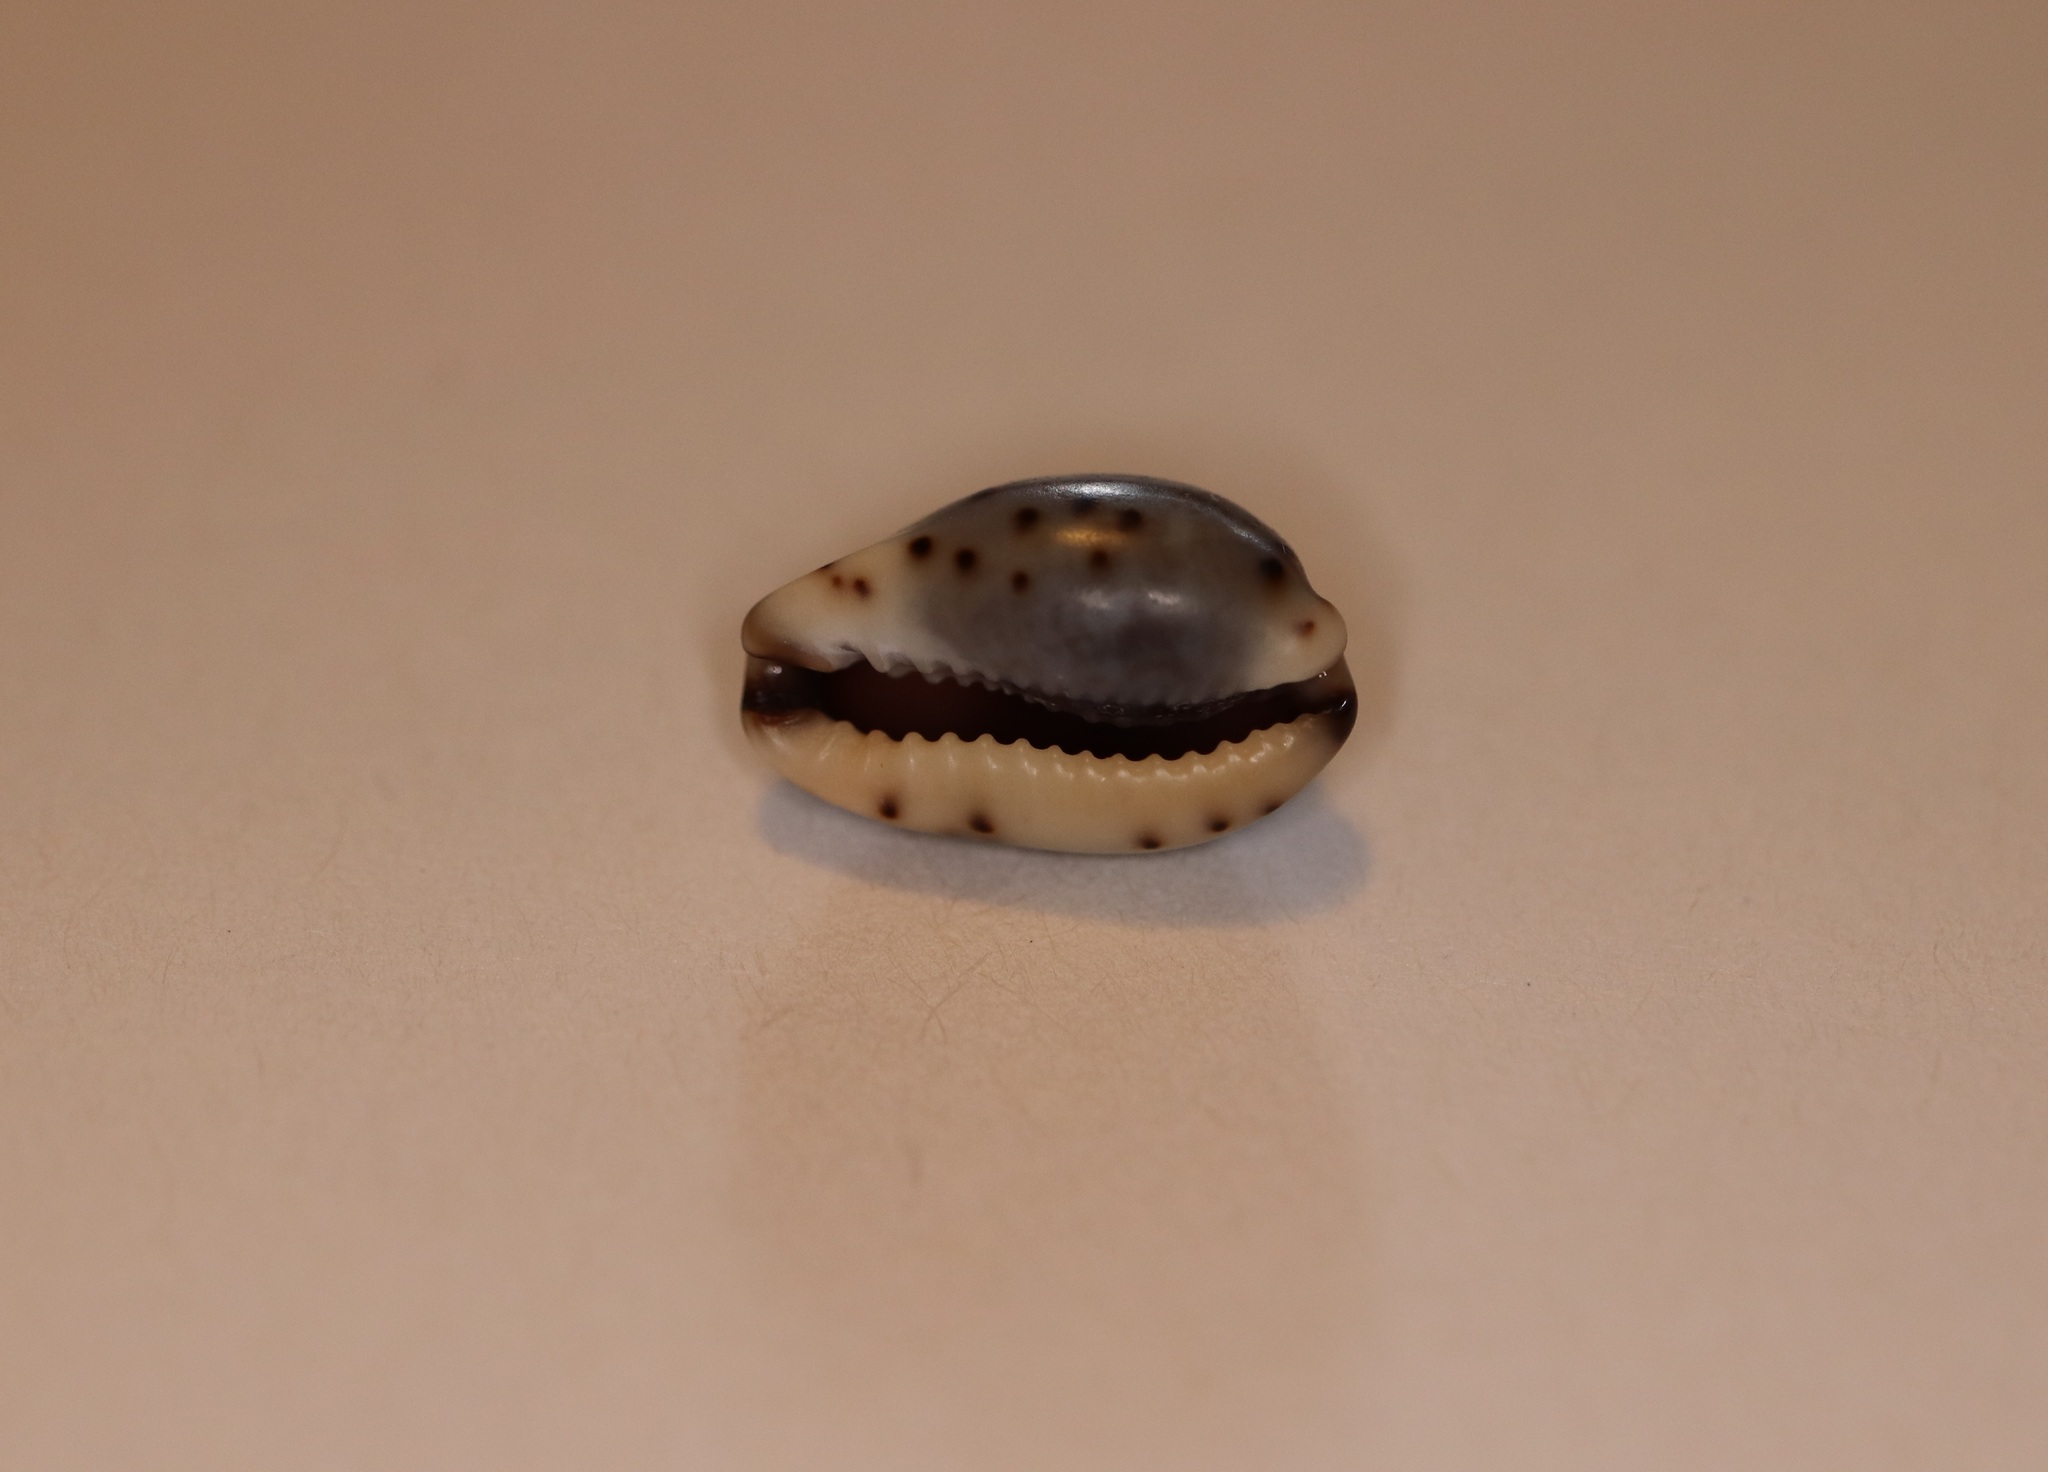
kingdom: Animalia
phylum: Mollusca
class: Gastropoda
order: Littorinimorpha
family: Cypraeidae
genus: Purpuradusta
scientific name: Purpuradusta gracilis
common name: Graceful cowrie
